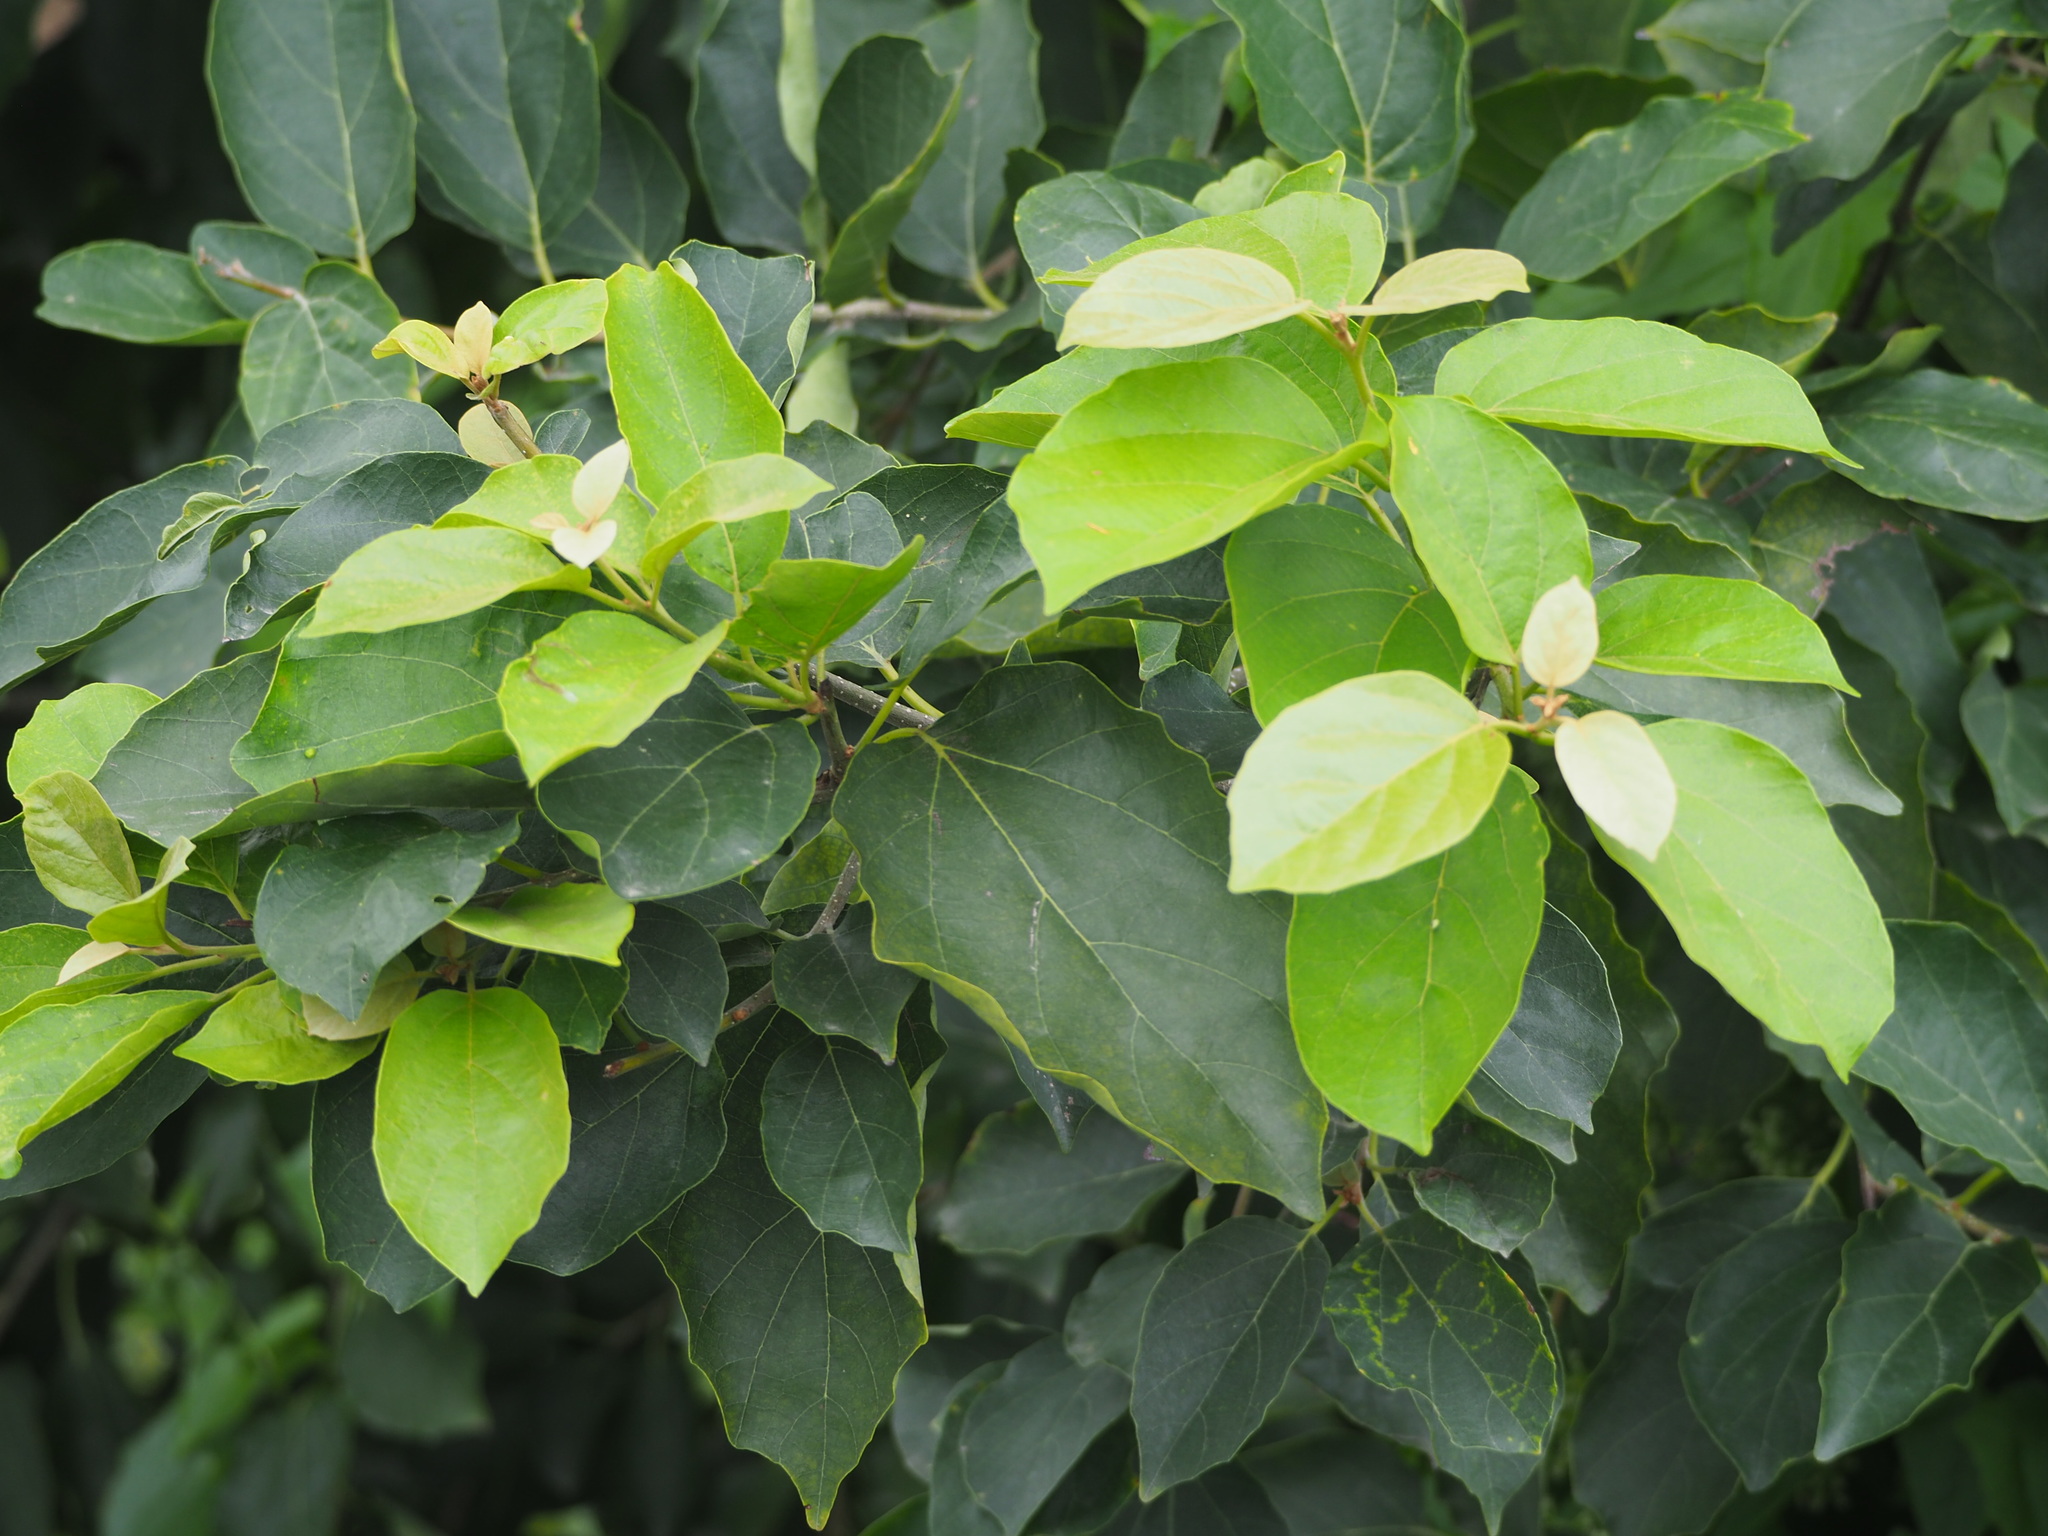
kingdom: Plantae
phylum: Tracheophyta
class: Magnoliopsida
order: Boraginales
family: Cordiaceae
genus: Cordia
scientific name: Cordia dichotoma
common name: Fragrant manjack
